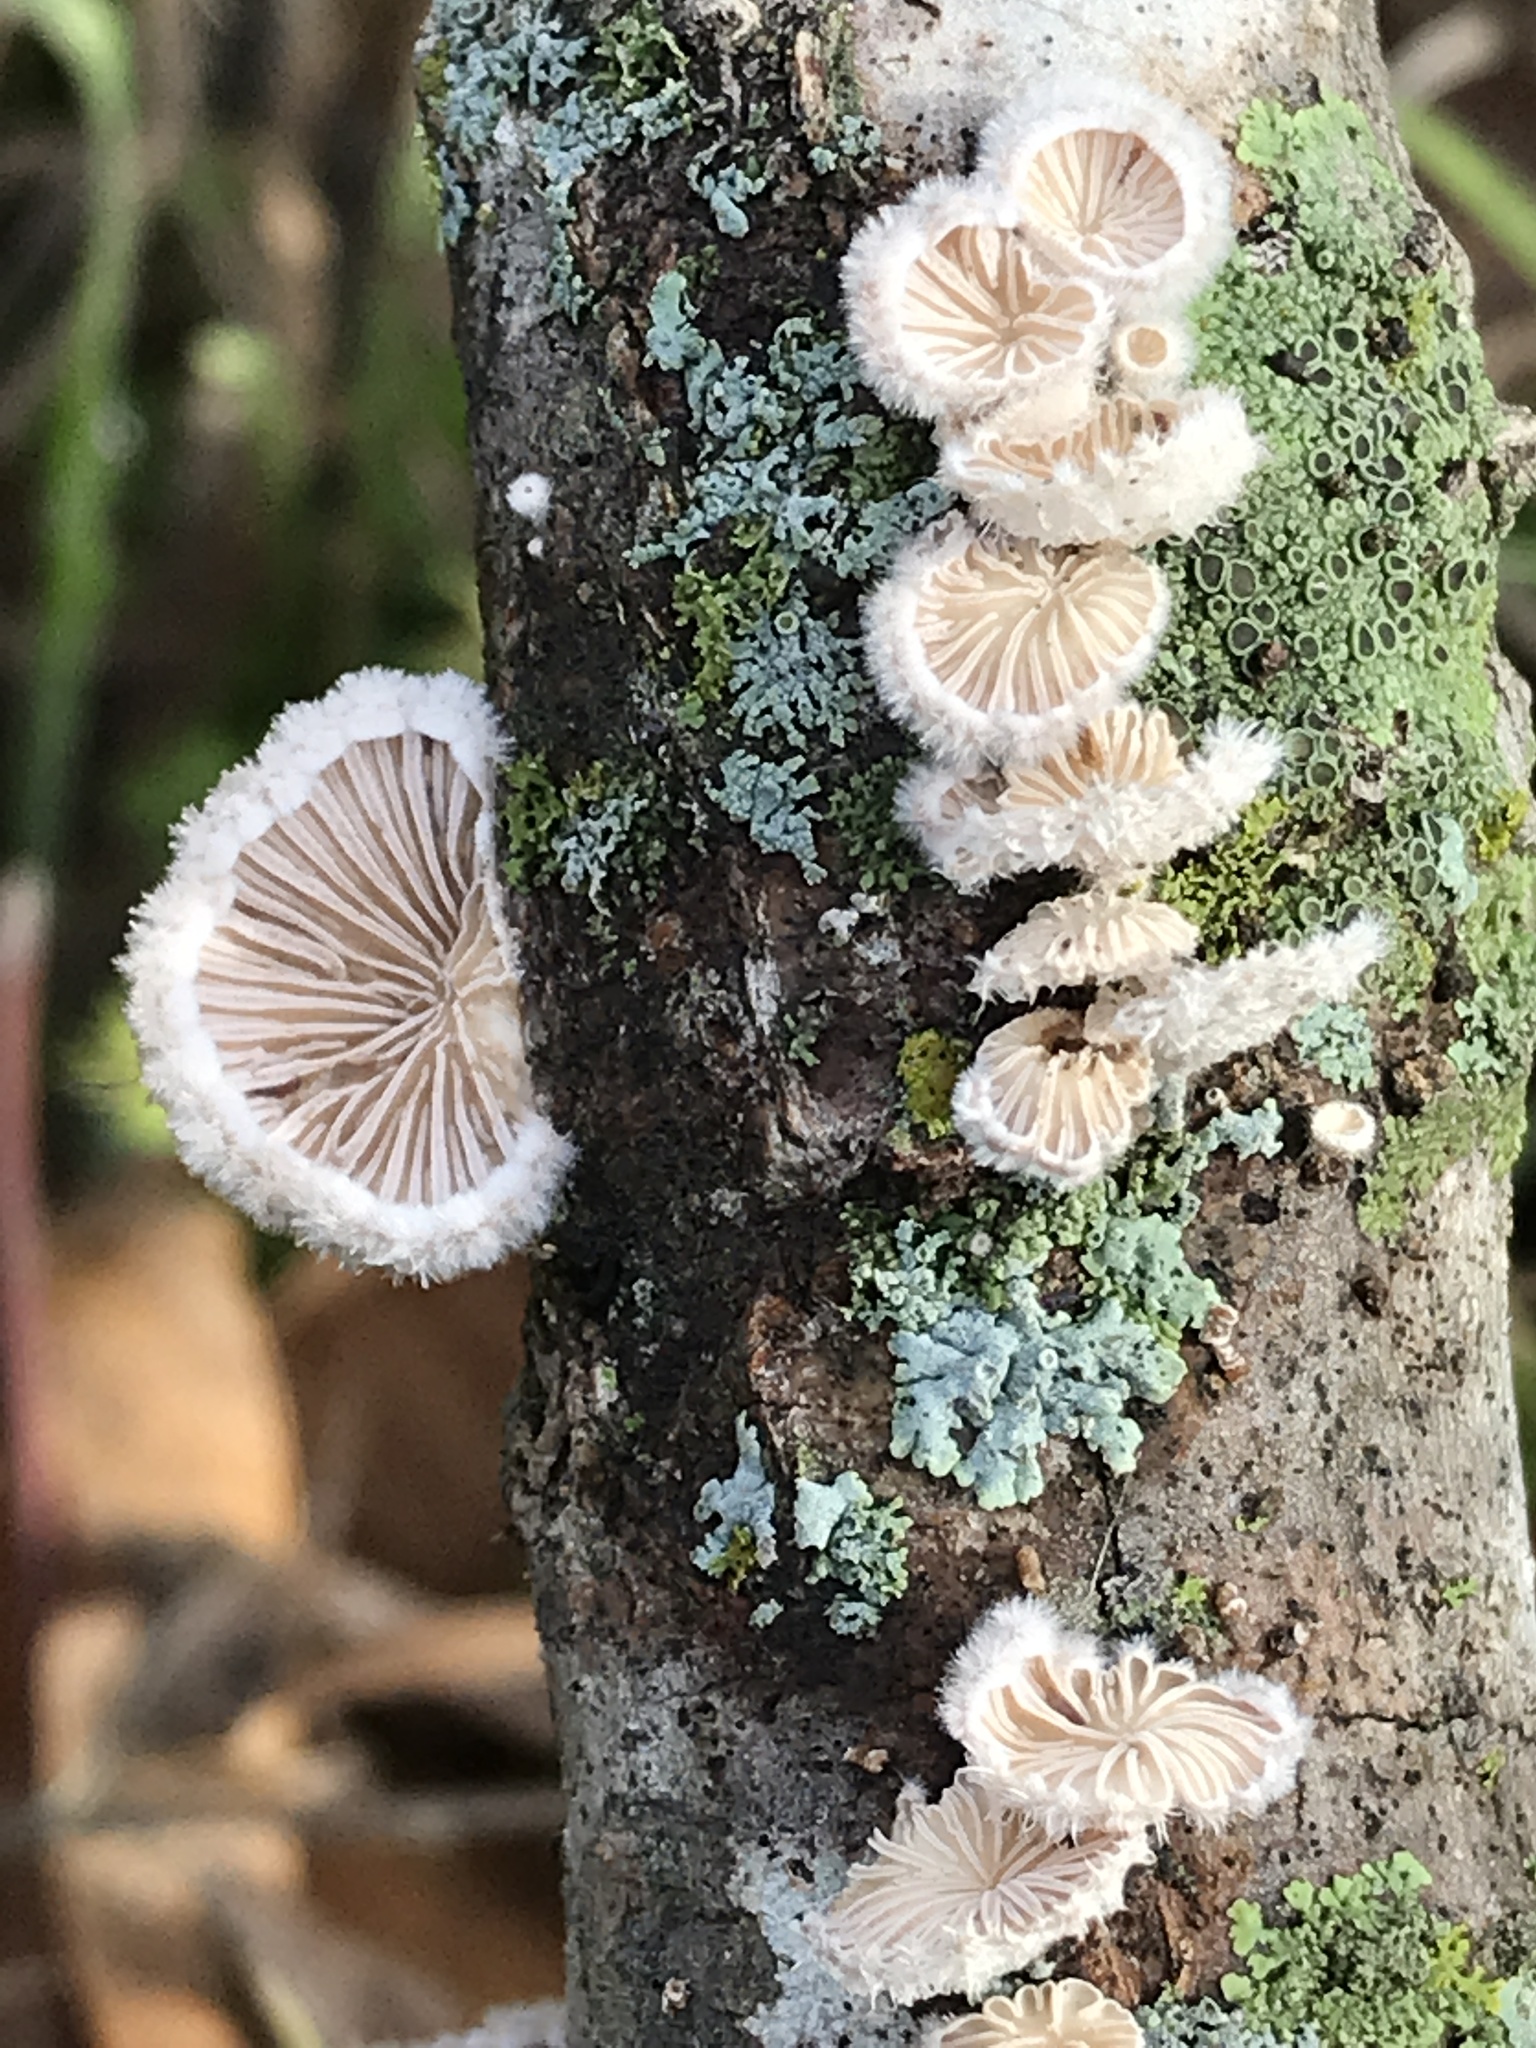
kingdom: Fungi
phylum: Basidiomycota
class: Agaricomycetes
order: Agaricales
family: Schizophyllaceae
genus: Schizophyllum
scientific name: Schizophyllum commune
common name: Common porecrust
